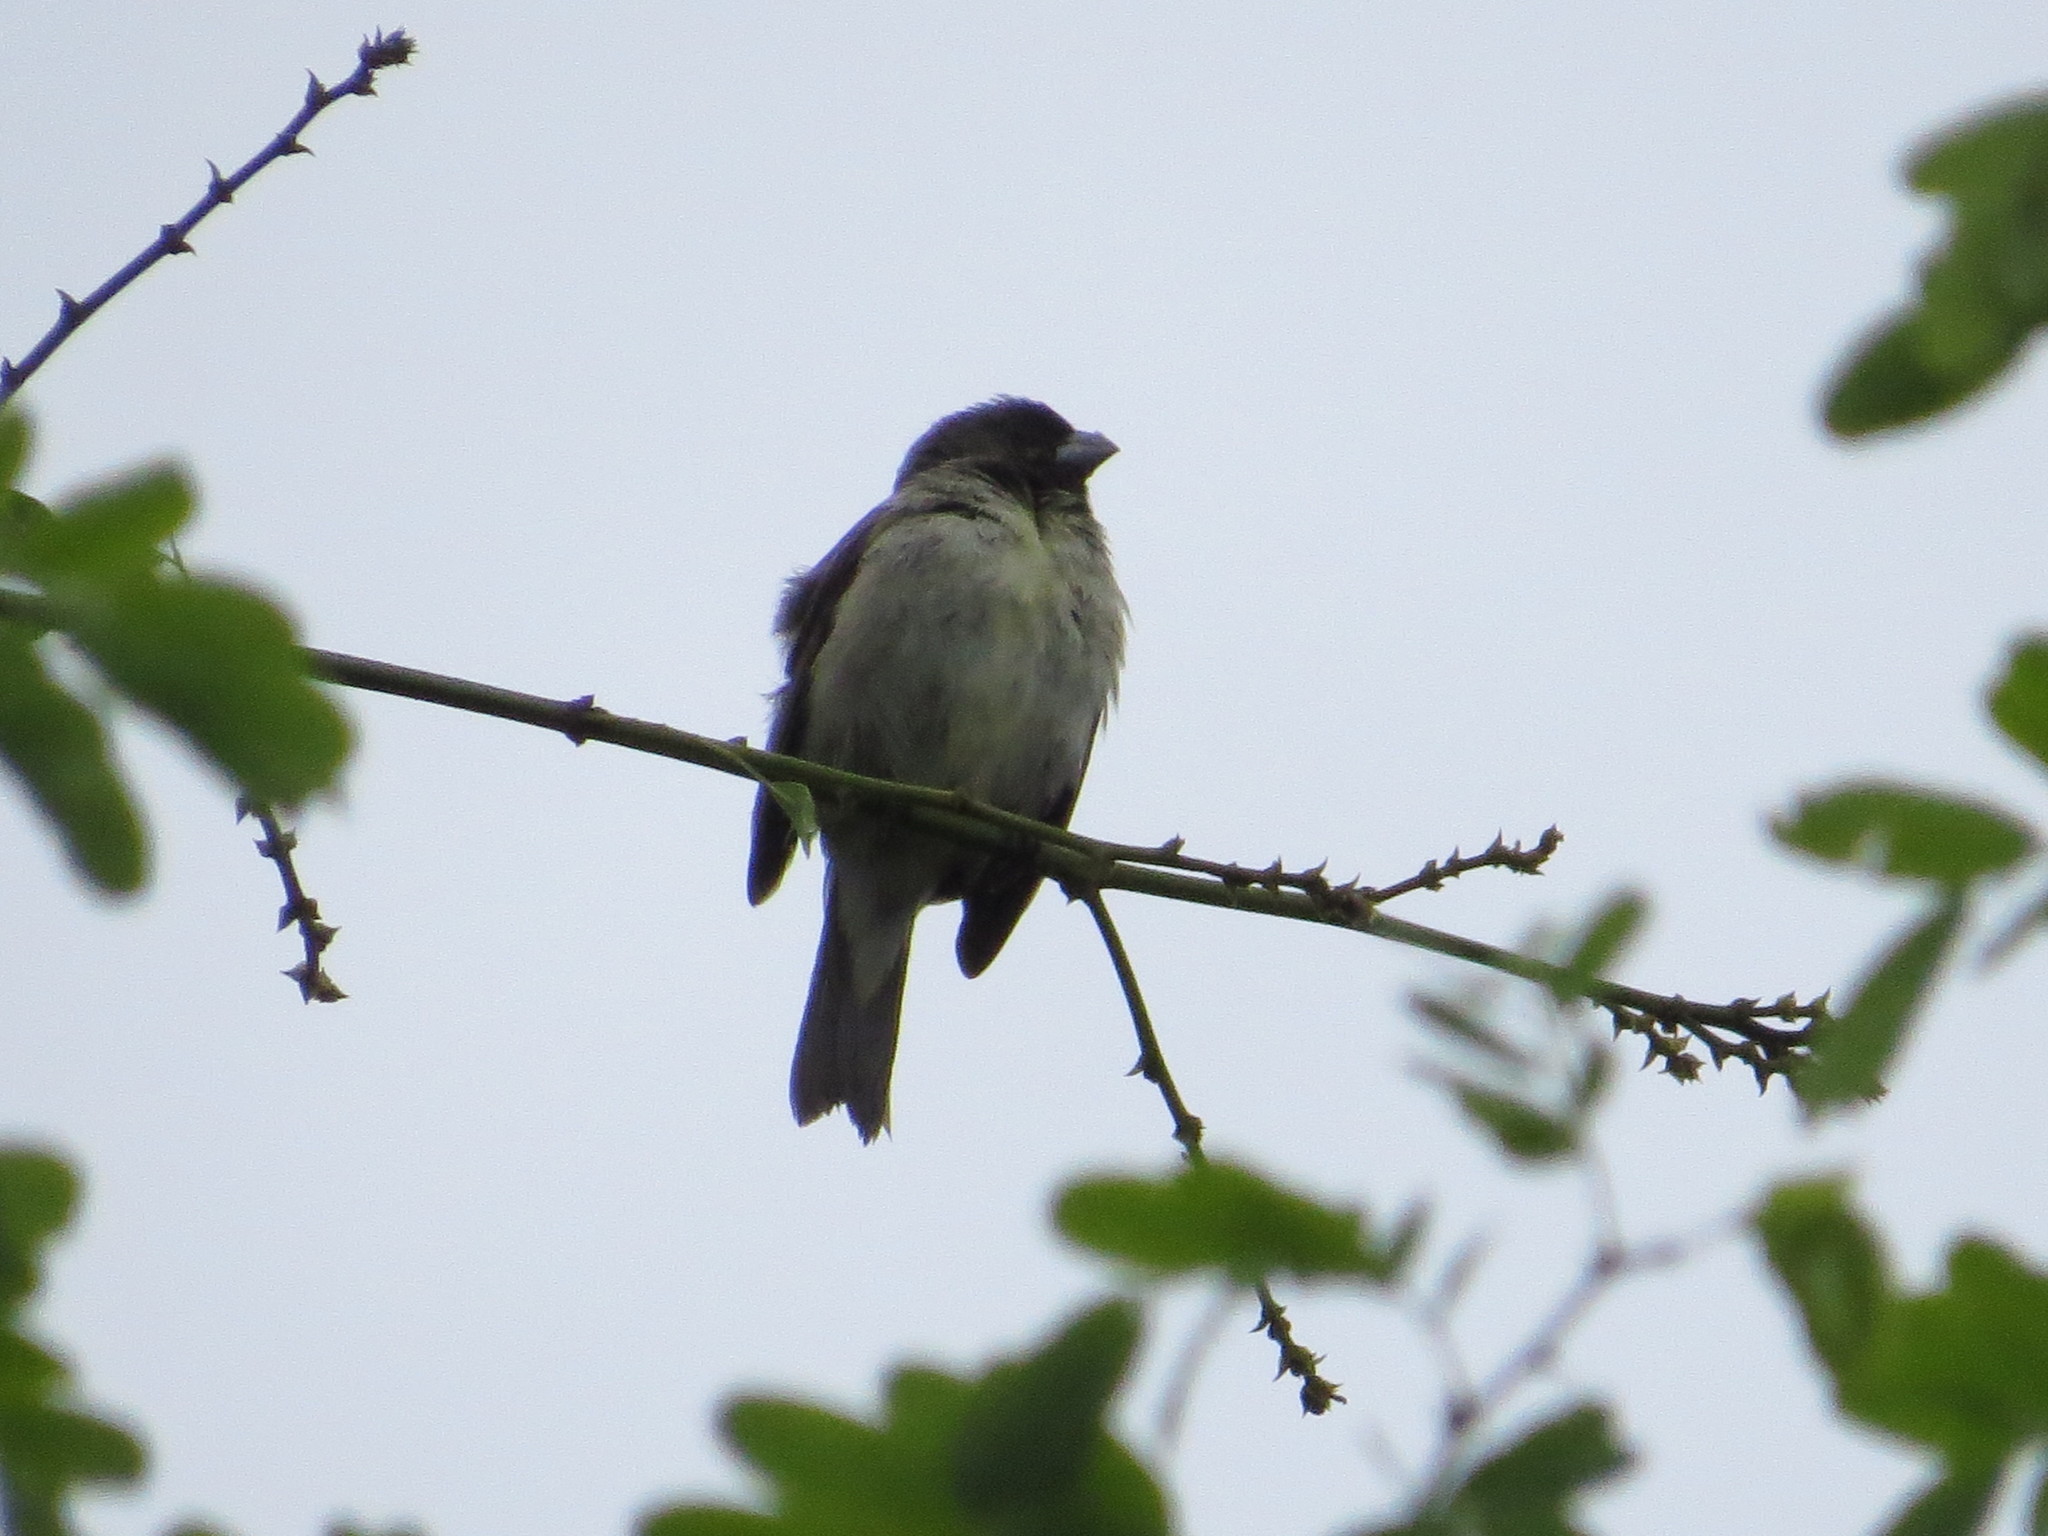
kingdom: Animalia
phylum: Chordata
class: Aves
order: Passeriformes
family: Thraupidae
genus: Sporophila
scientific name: Sporophila nigricollis
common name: Yellow-bellied seedeater
